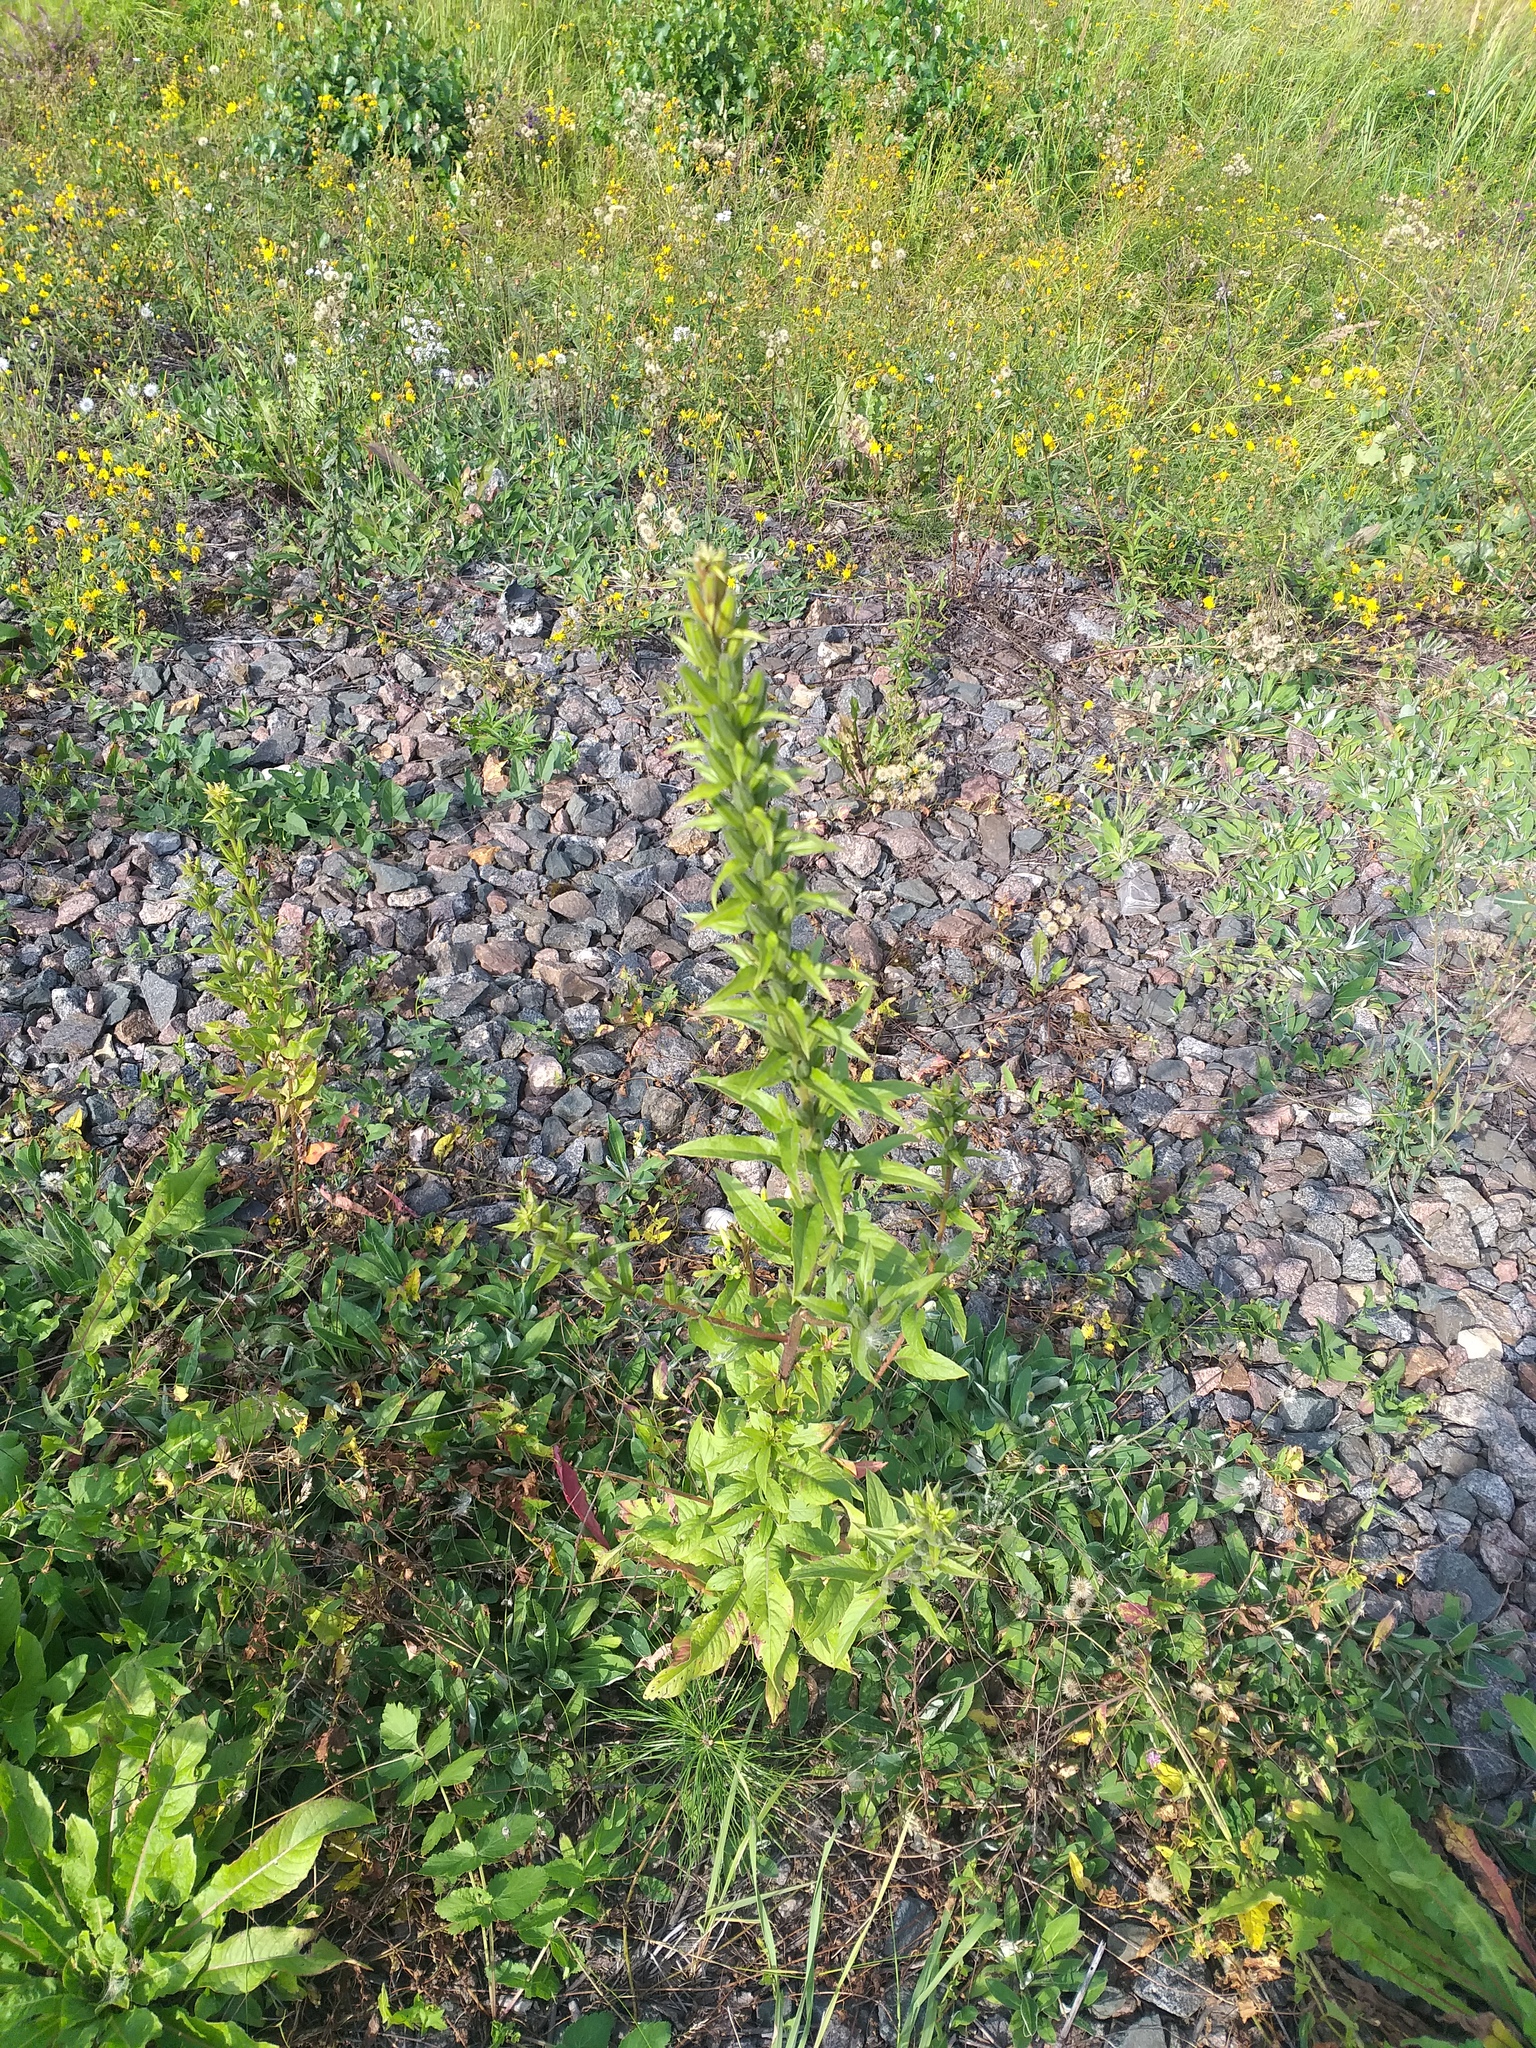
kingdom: Plantae
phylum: Tracheophyta
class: Magnoliopsida
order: Myrtales
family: Onagraceae
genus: Oenothera
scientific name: Oenothera rubricaulis
